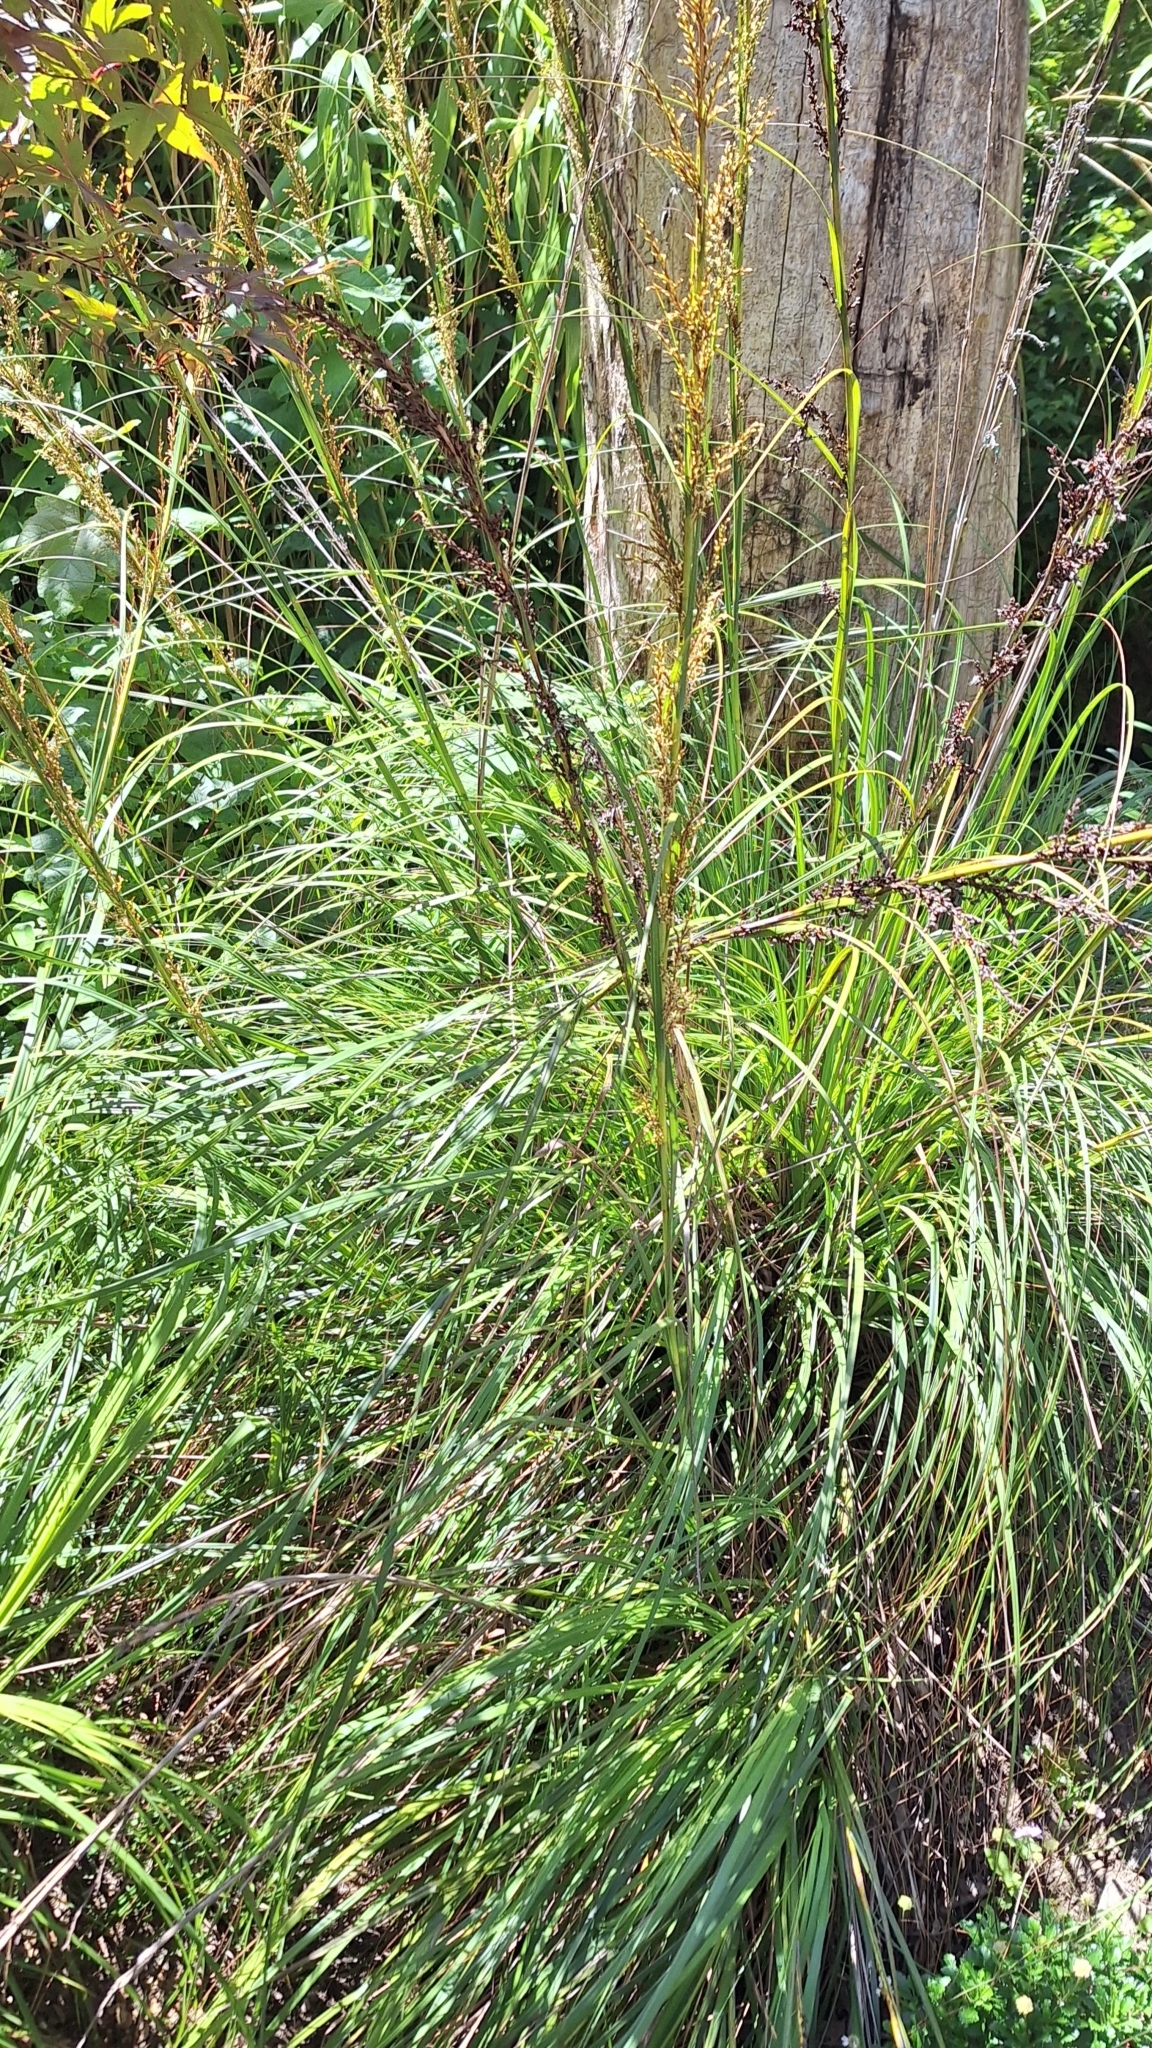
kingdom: Plantae
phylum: Tracheophyta
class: Liliopsida
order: Poales
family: Cyperaceae
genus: Gahnia
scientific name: Gahnia sieberiana
